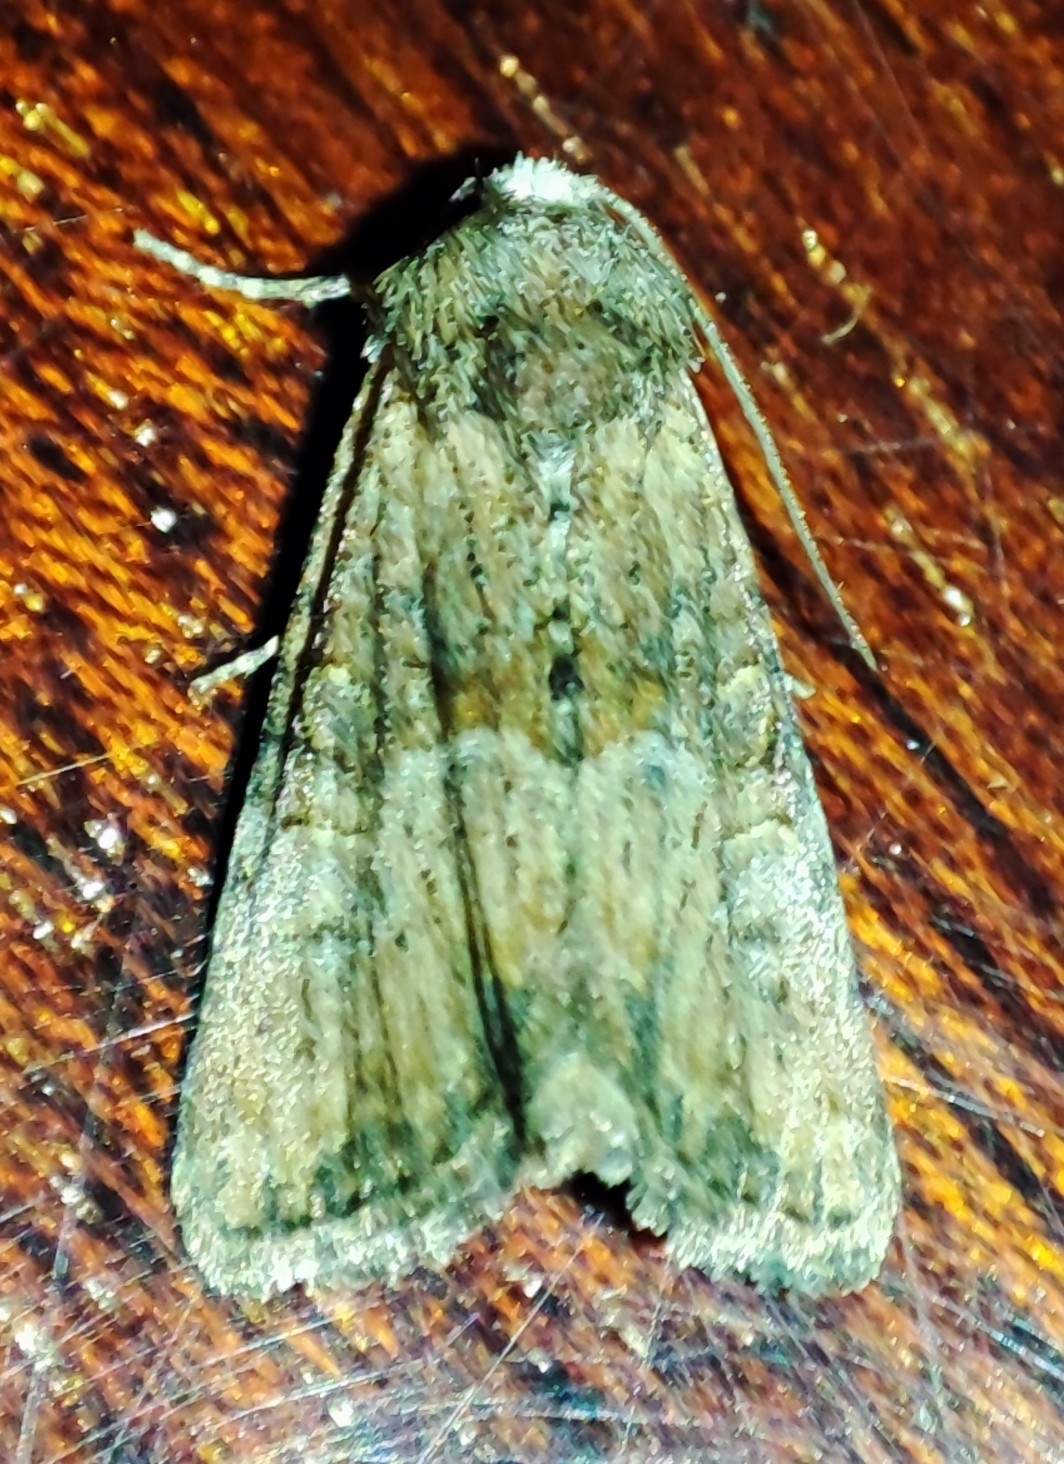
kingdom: Animalia
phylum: Arthropoda
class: Insecta
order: Lepidoptera
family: Noctuidae
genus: Mesoligia
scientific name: Mesoligia furuncula
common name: Cloaked minor
